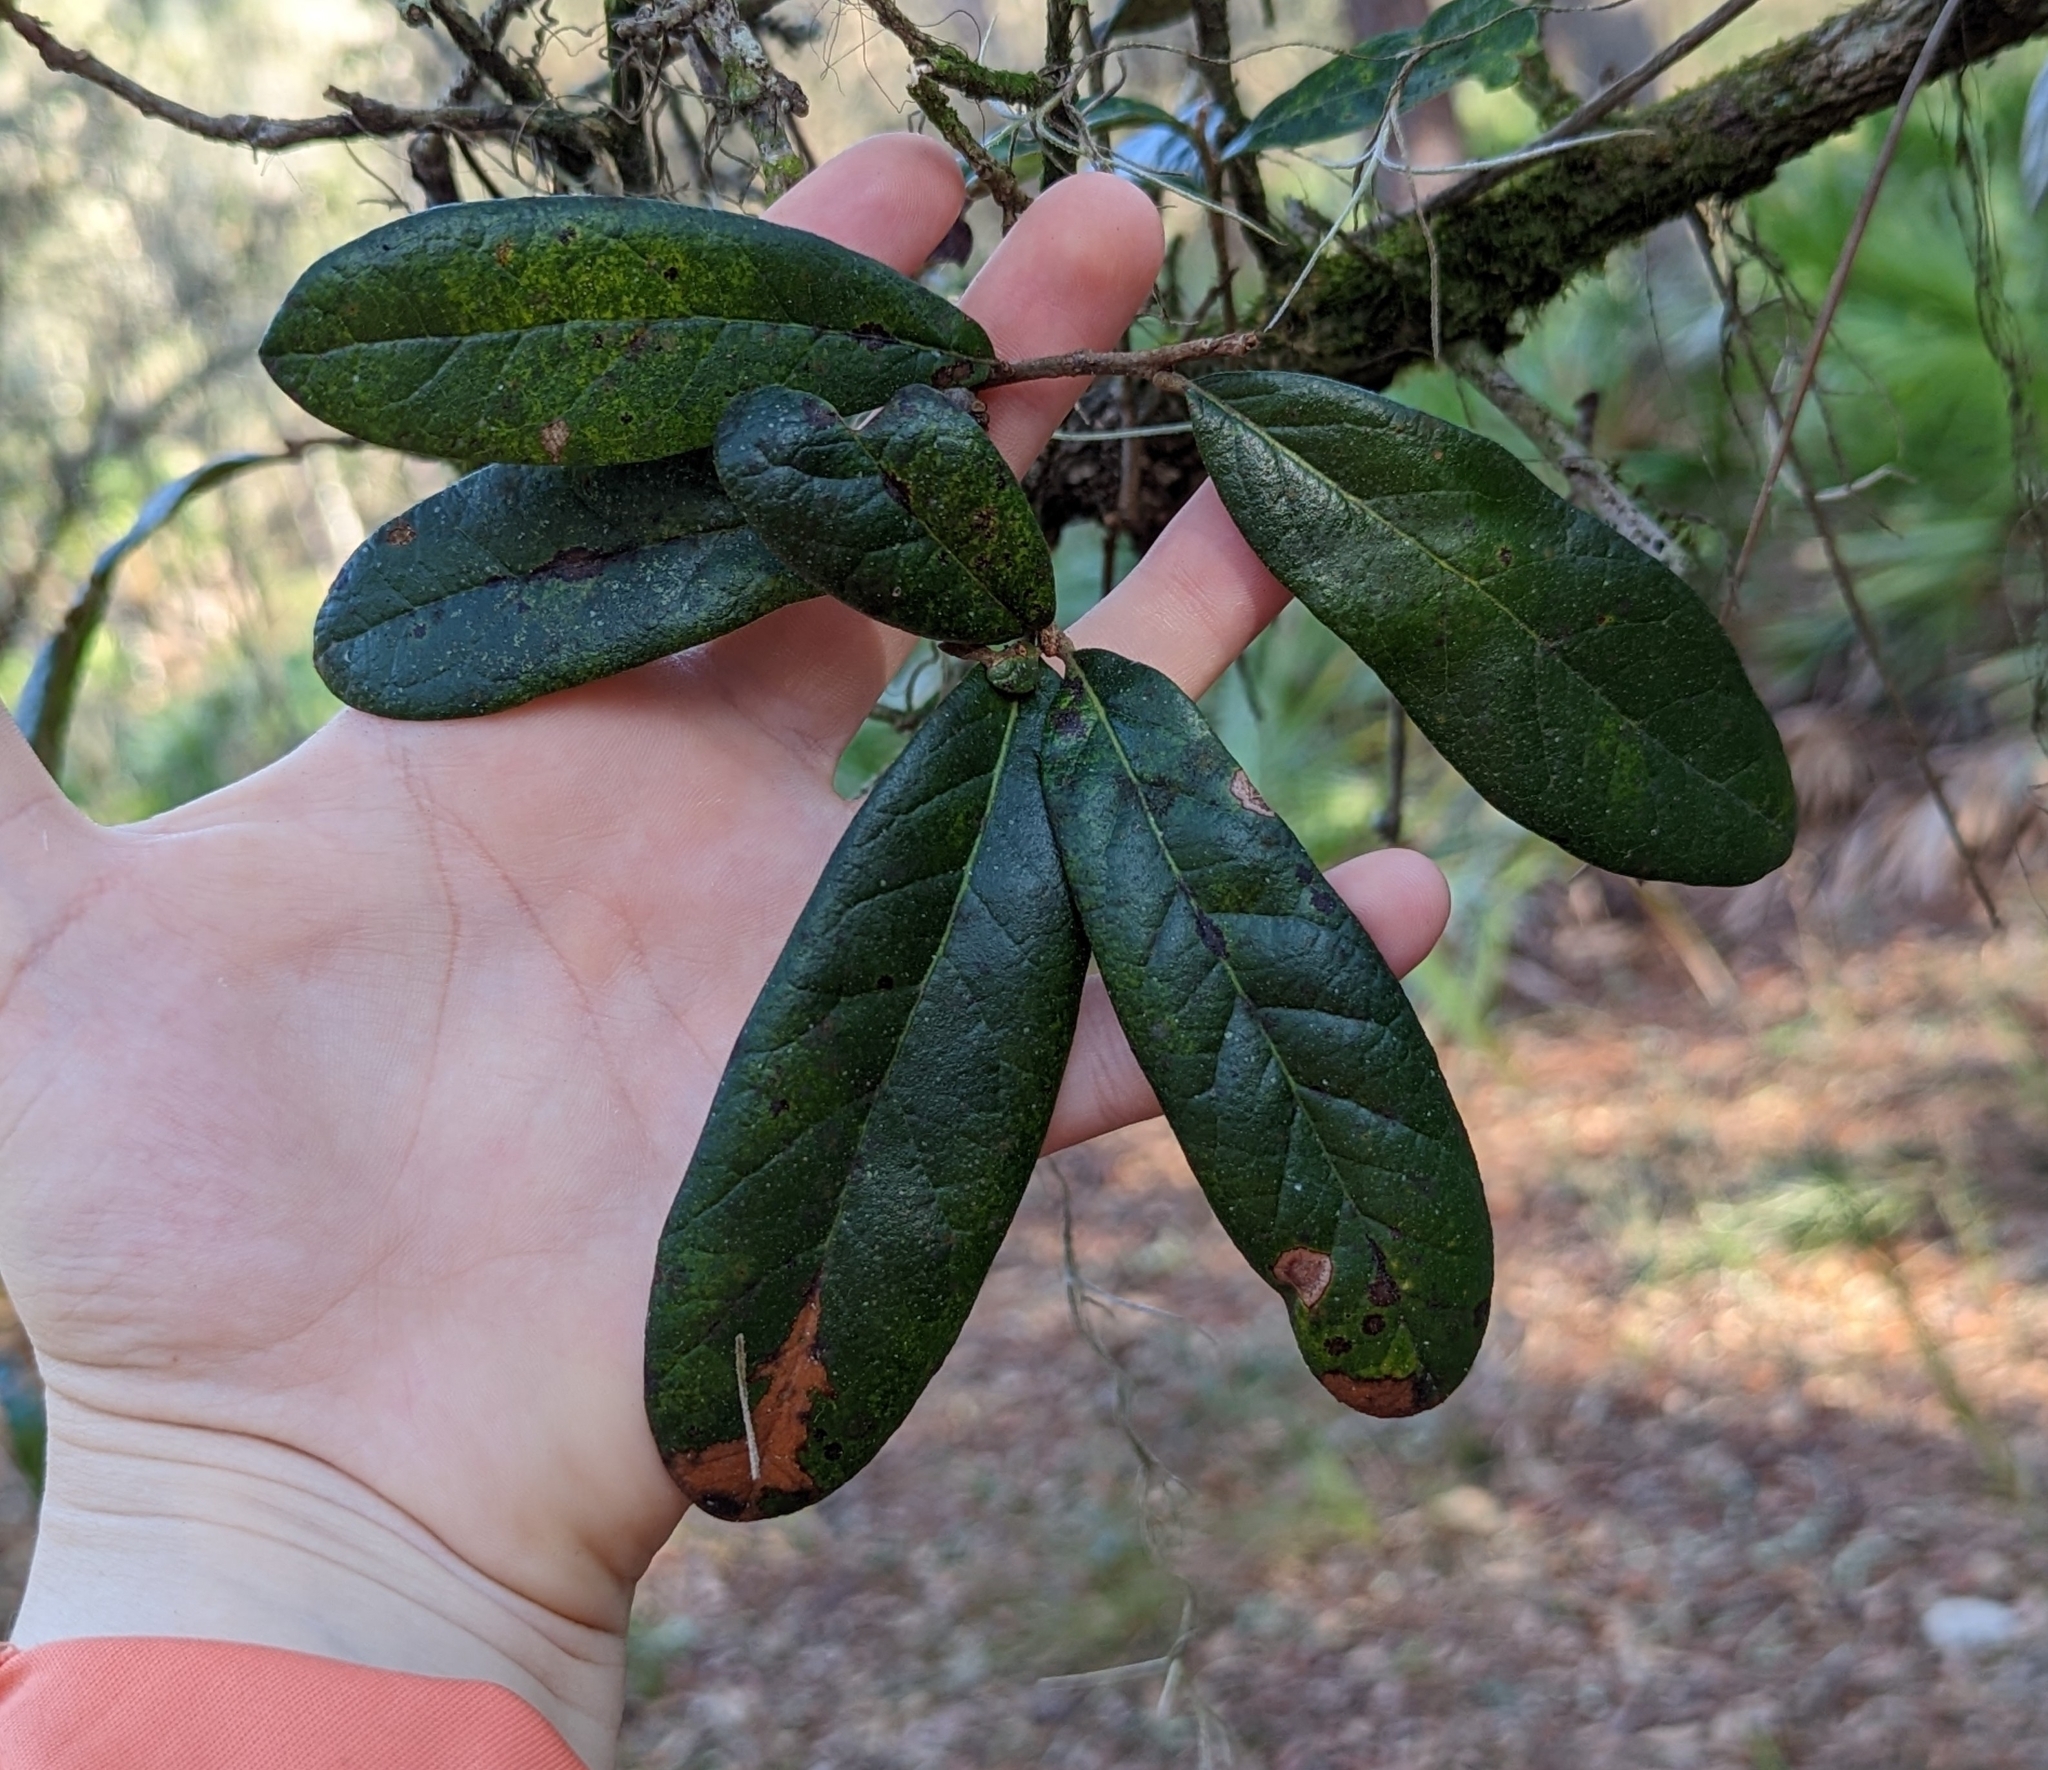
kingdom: Plantae
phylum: Tracheophyta
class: Magnoliopsida
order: Fagales
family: Fagaceae
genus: Quercus
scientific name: Quercus geminata
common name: Sand live oak
